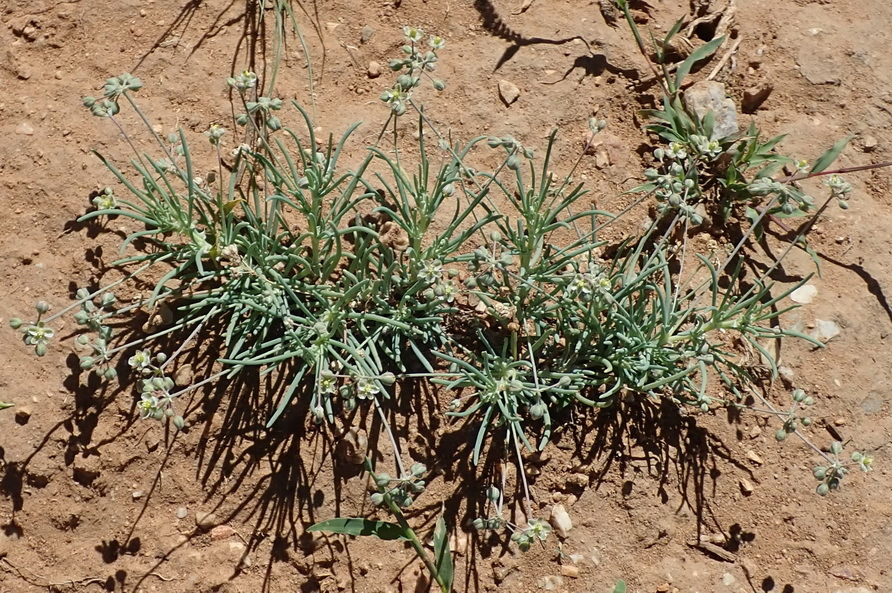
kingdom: Plantae
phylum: Tracheophyta
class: Magnoliopsida
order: Caryophyllales
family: Kewaceae
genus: Kewa
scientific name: Kewa bowkeriana
